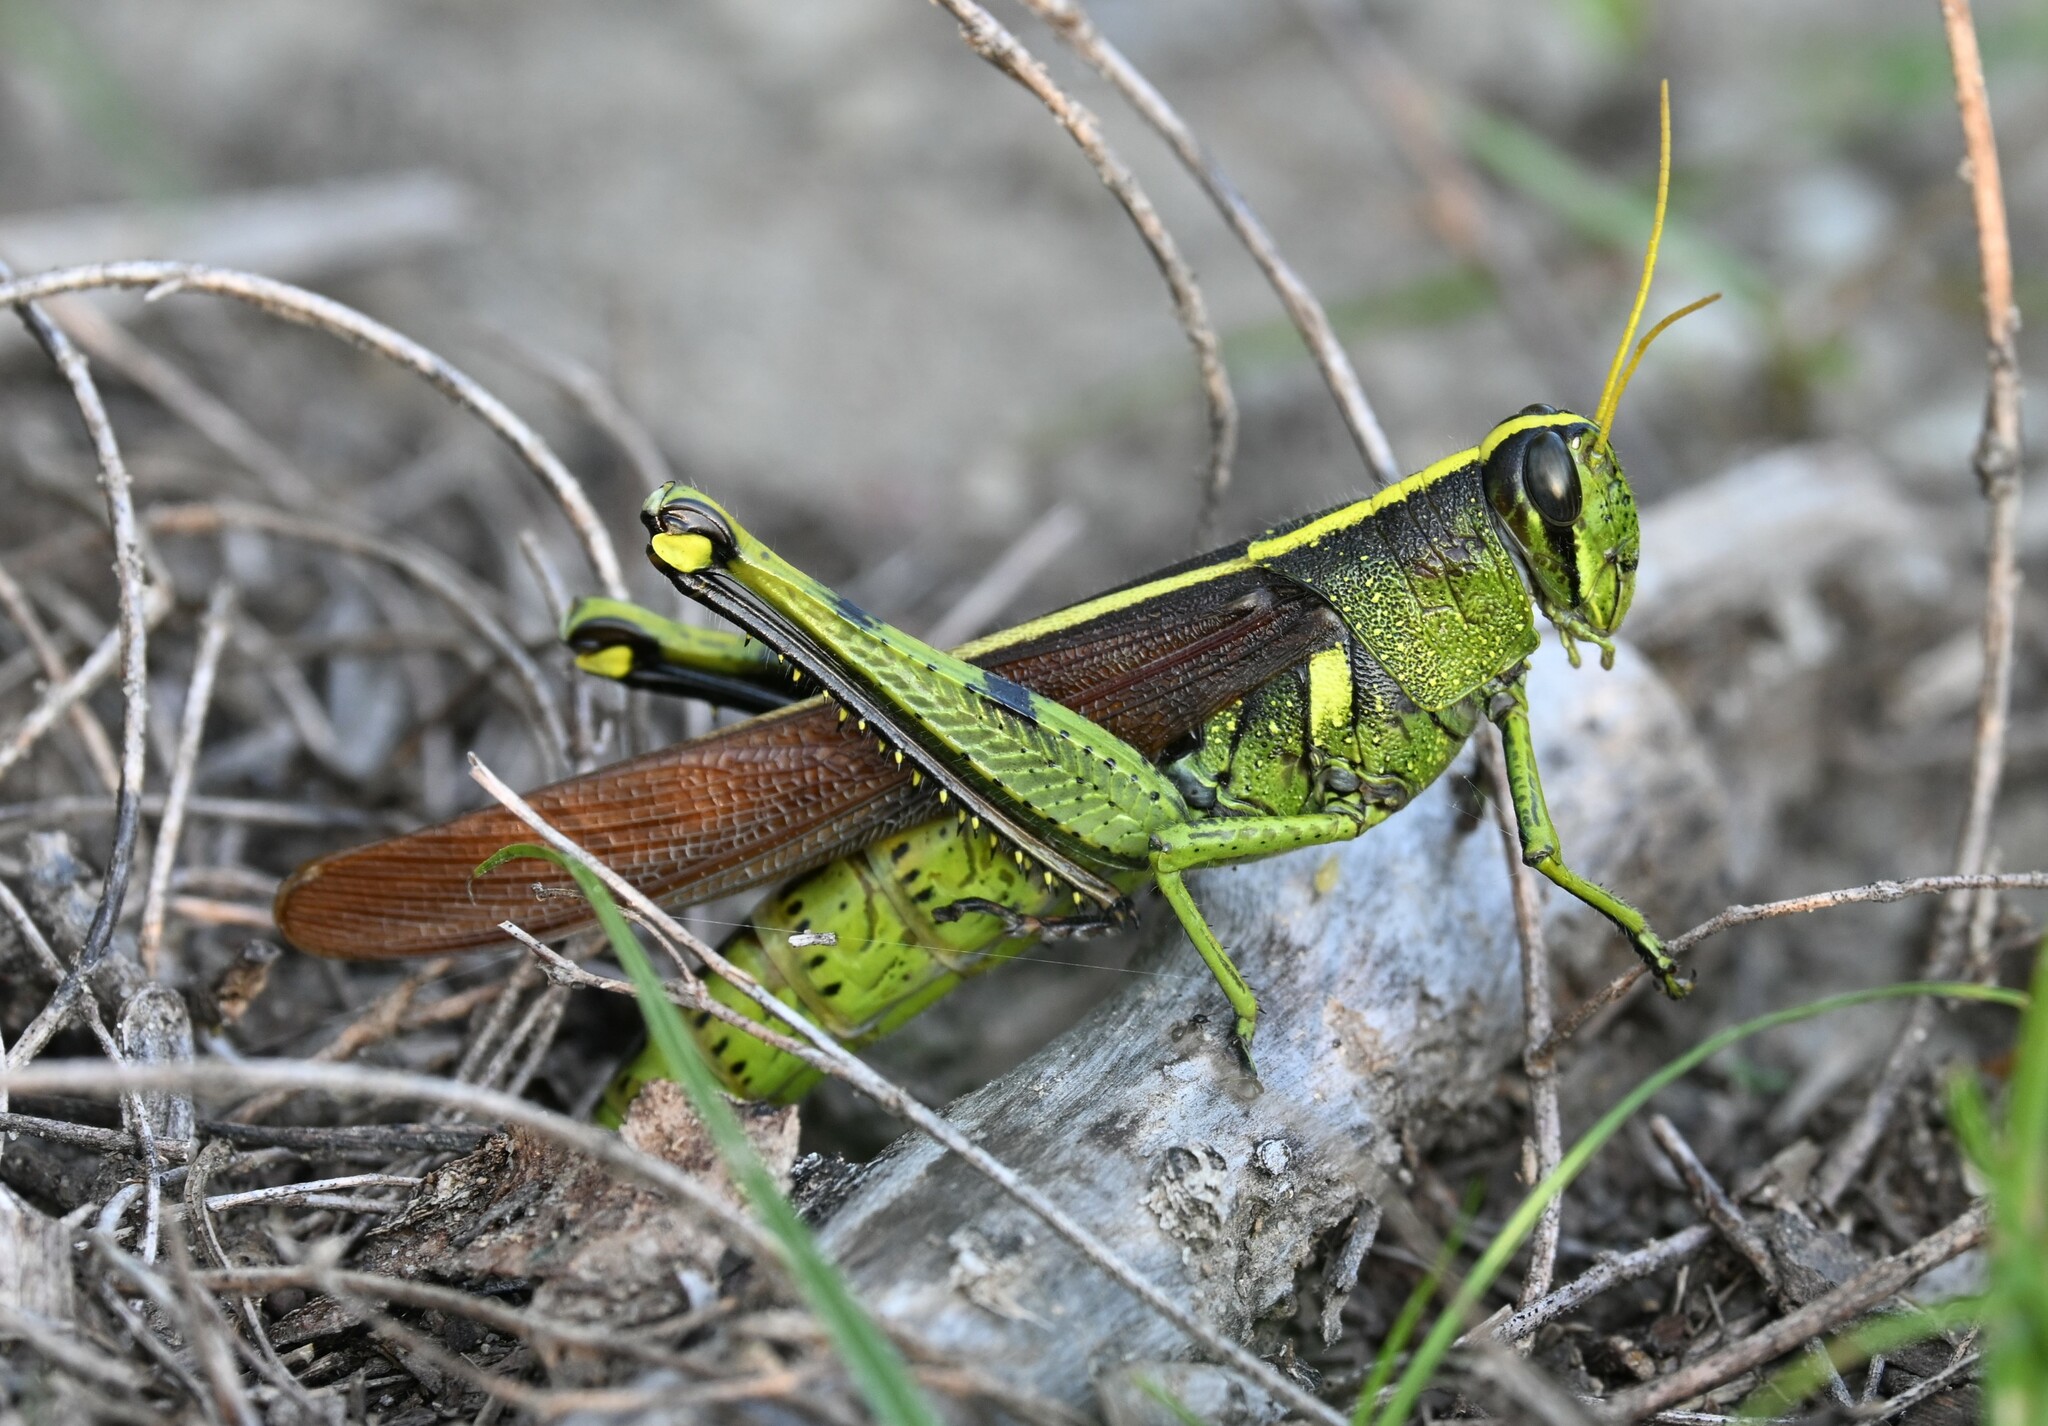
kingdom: Animalia
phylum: Arthropoda
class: Insecta
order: Orthoptera
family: Acrididae
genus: Schistocerca
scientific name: Schistocerca obscura
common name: Obscure bird grasshopper
